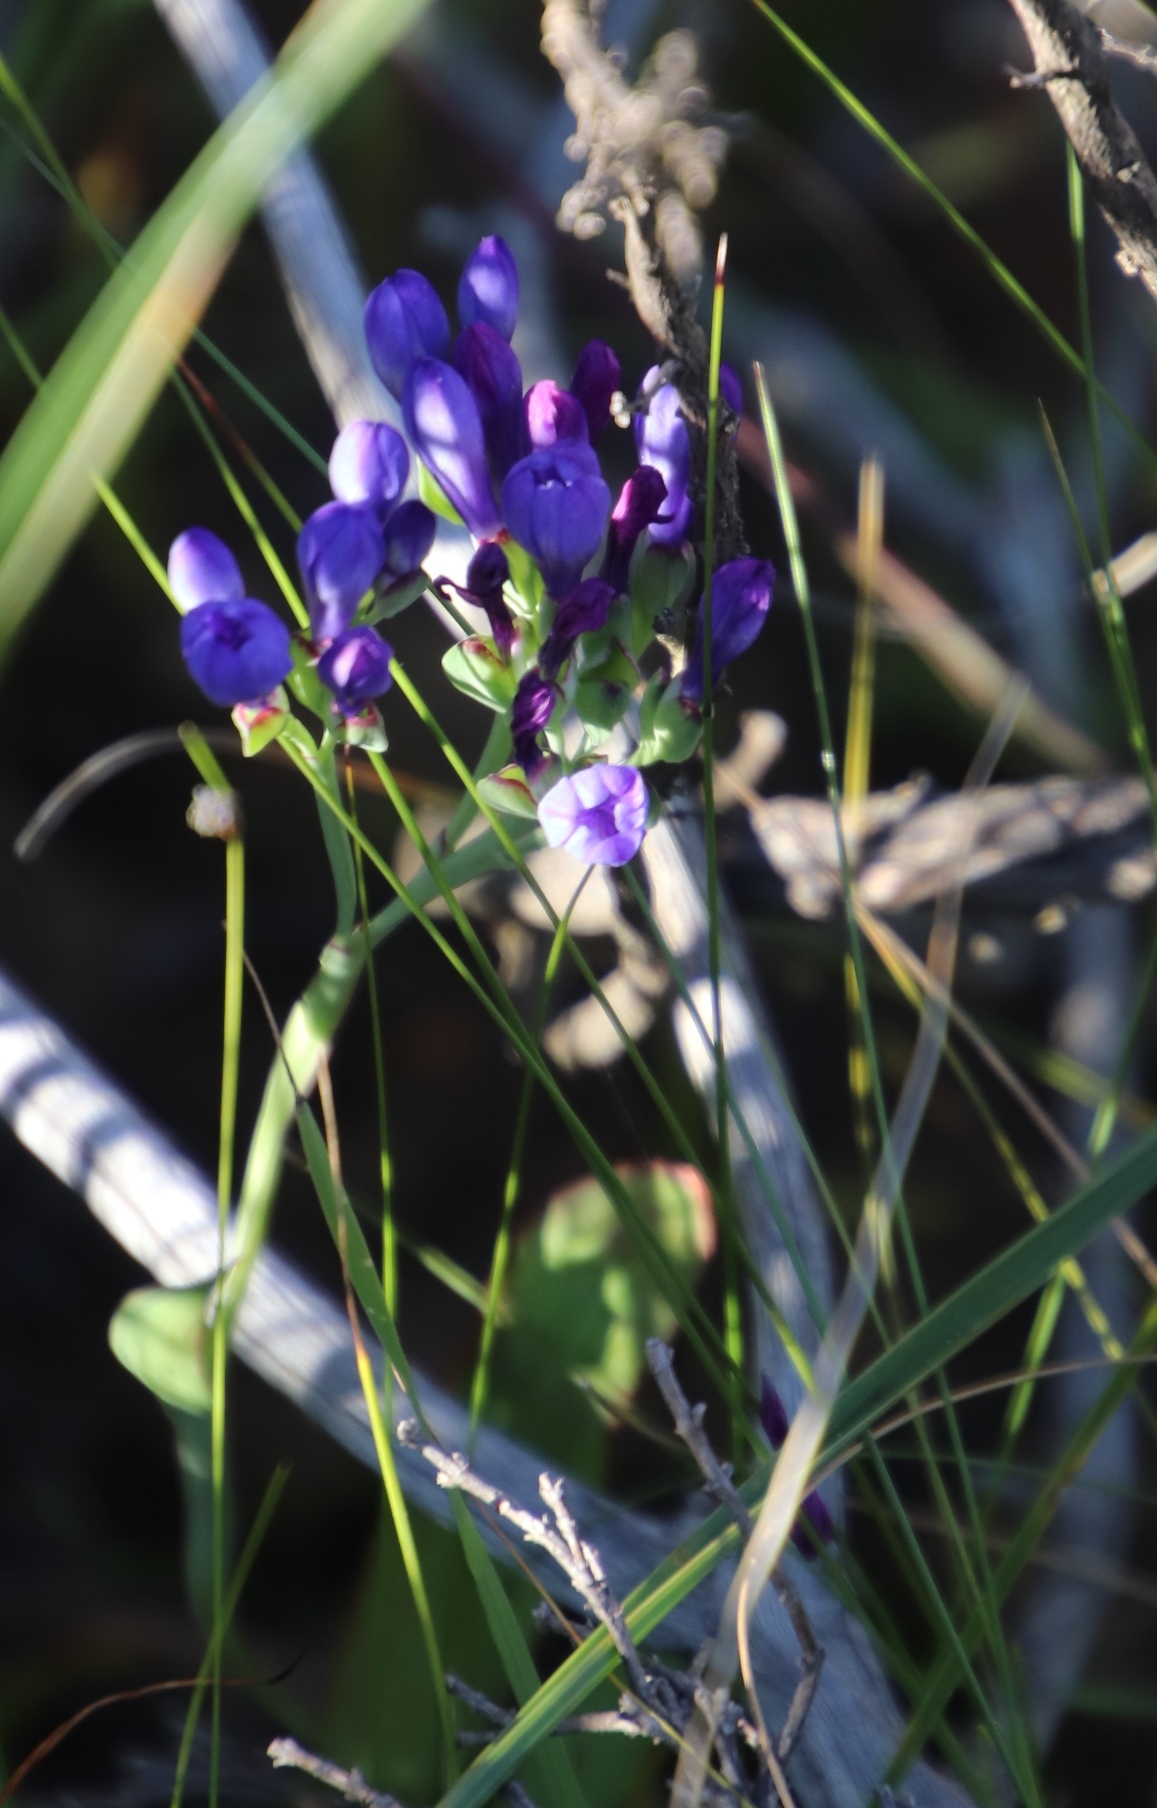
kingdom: Plantae
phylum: Tracheophyta
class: Liliopsida
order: Asparagales
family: Iridaceae
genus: Codonorhiza
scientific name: Codonorhiza corymbosa
